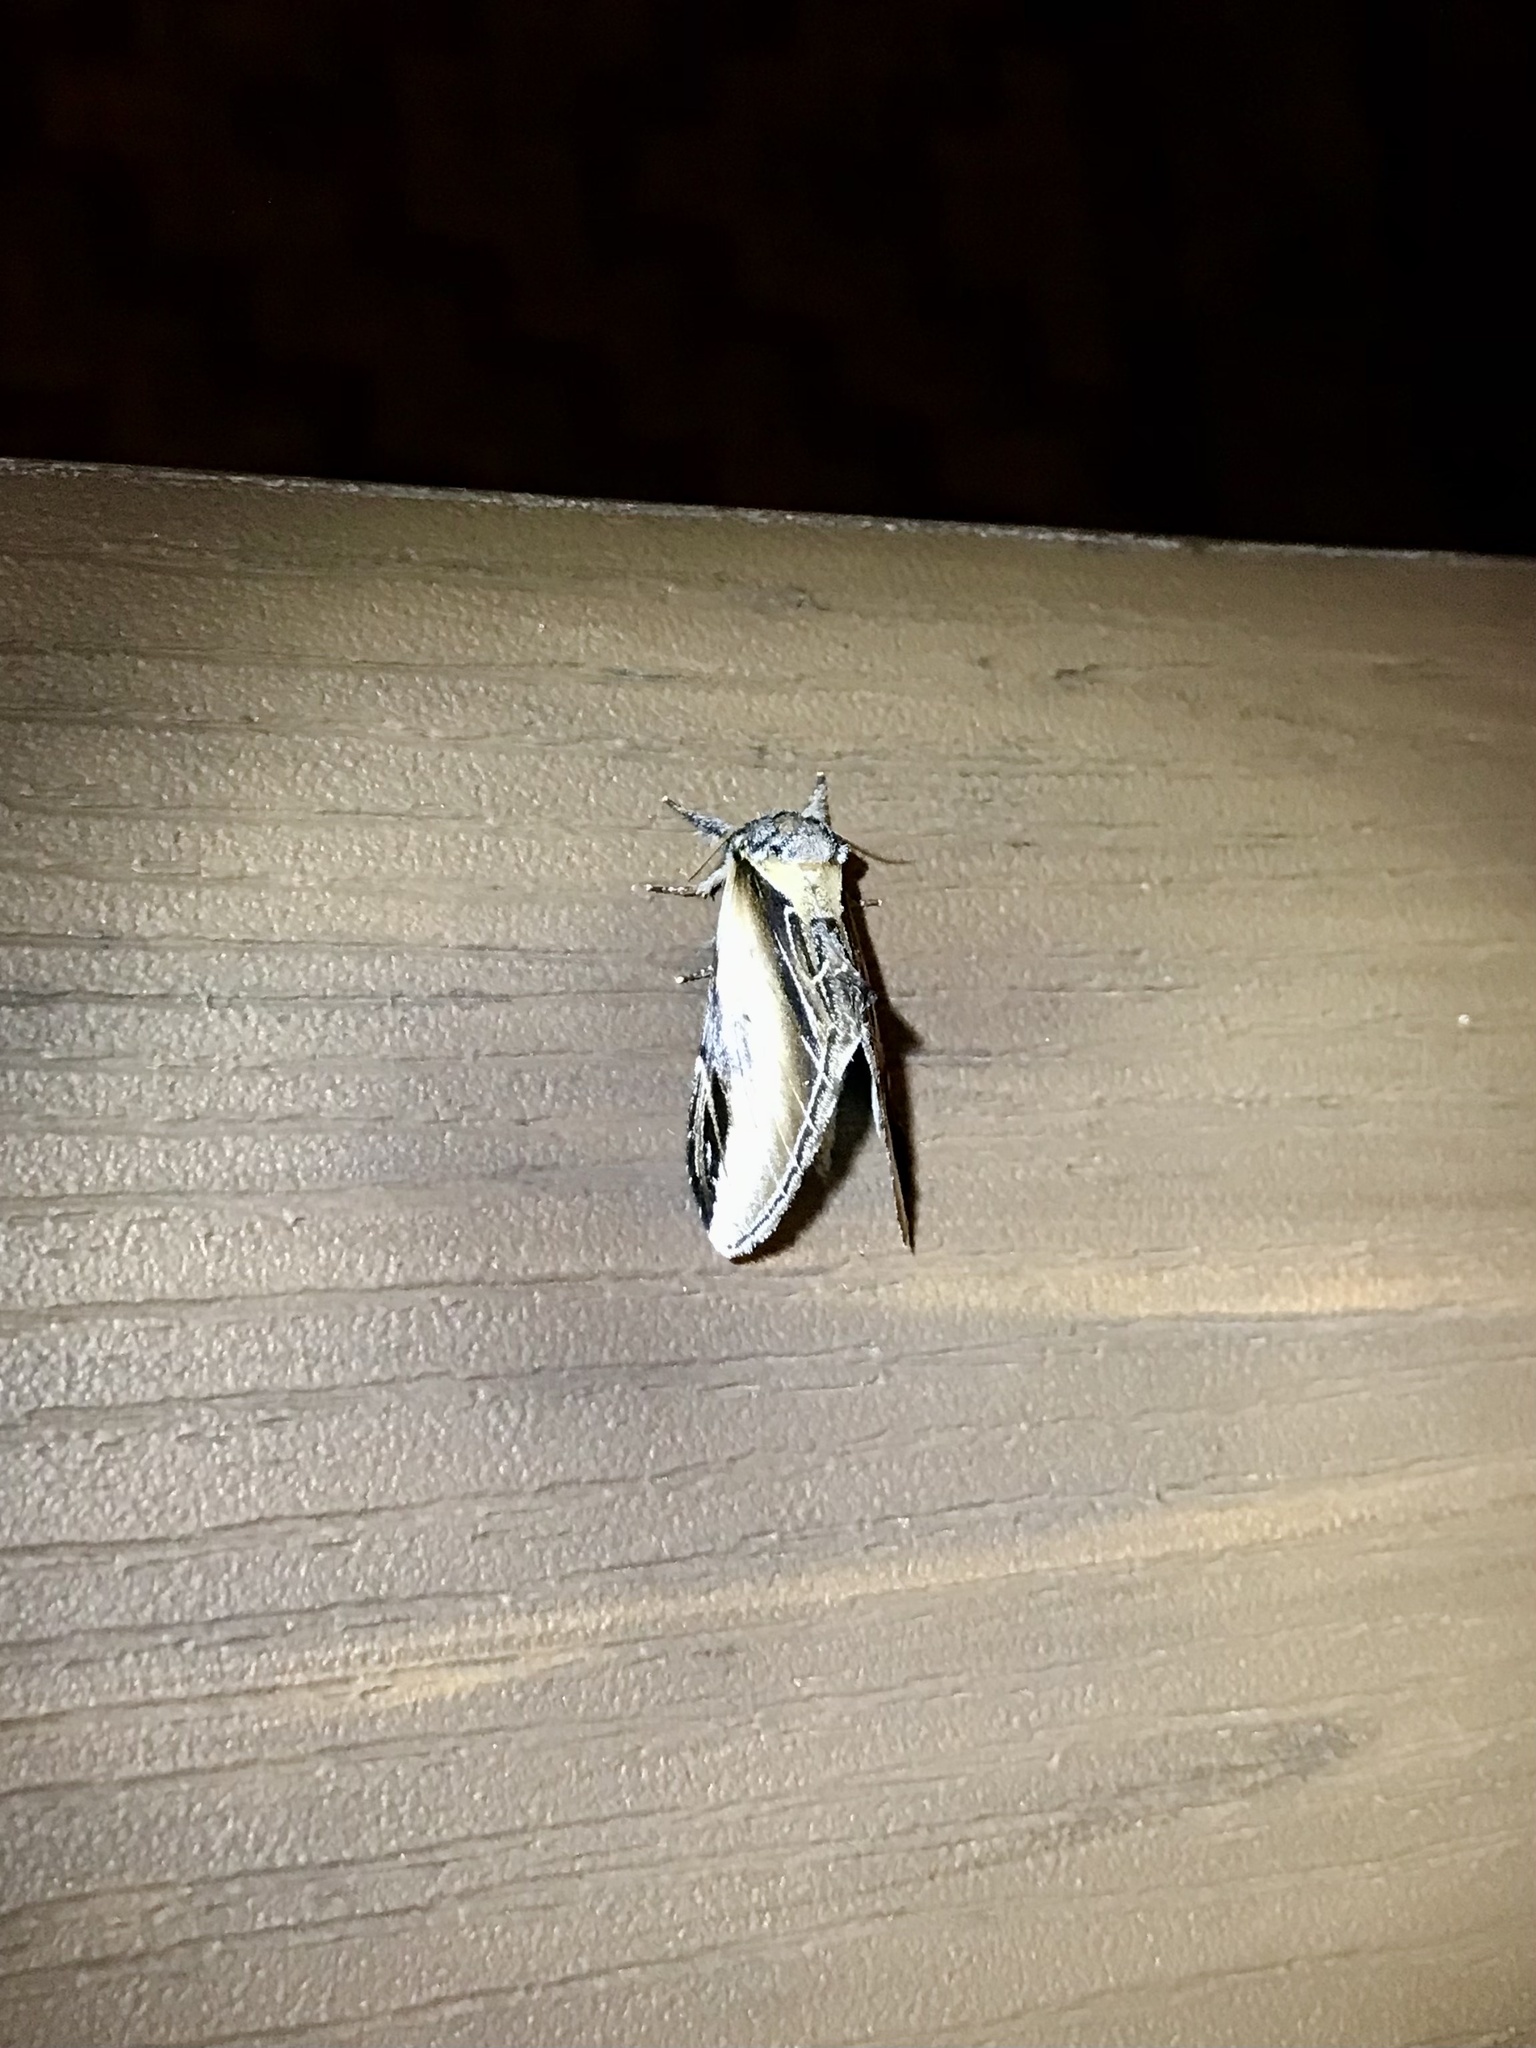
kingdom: Animalia
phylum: Arthropoda
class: Insecta
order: Lepidoptera
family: Notodontidae
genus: Pheosia
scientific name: Pheosia rimosa
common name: Black-rimmed prominent
